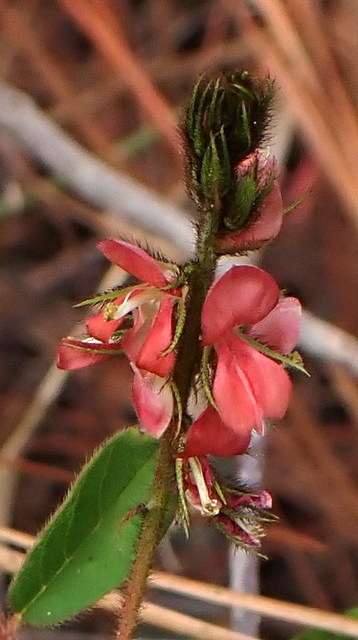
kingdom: Plantae
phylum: Tracheophyta
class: Magnoliopsida
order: Fabales
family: Fabaceae
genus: Indigofera
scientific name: Indigofera hirsuta
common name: Hairy indigo
